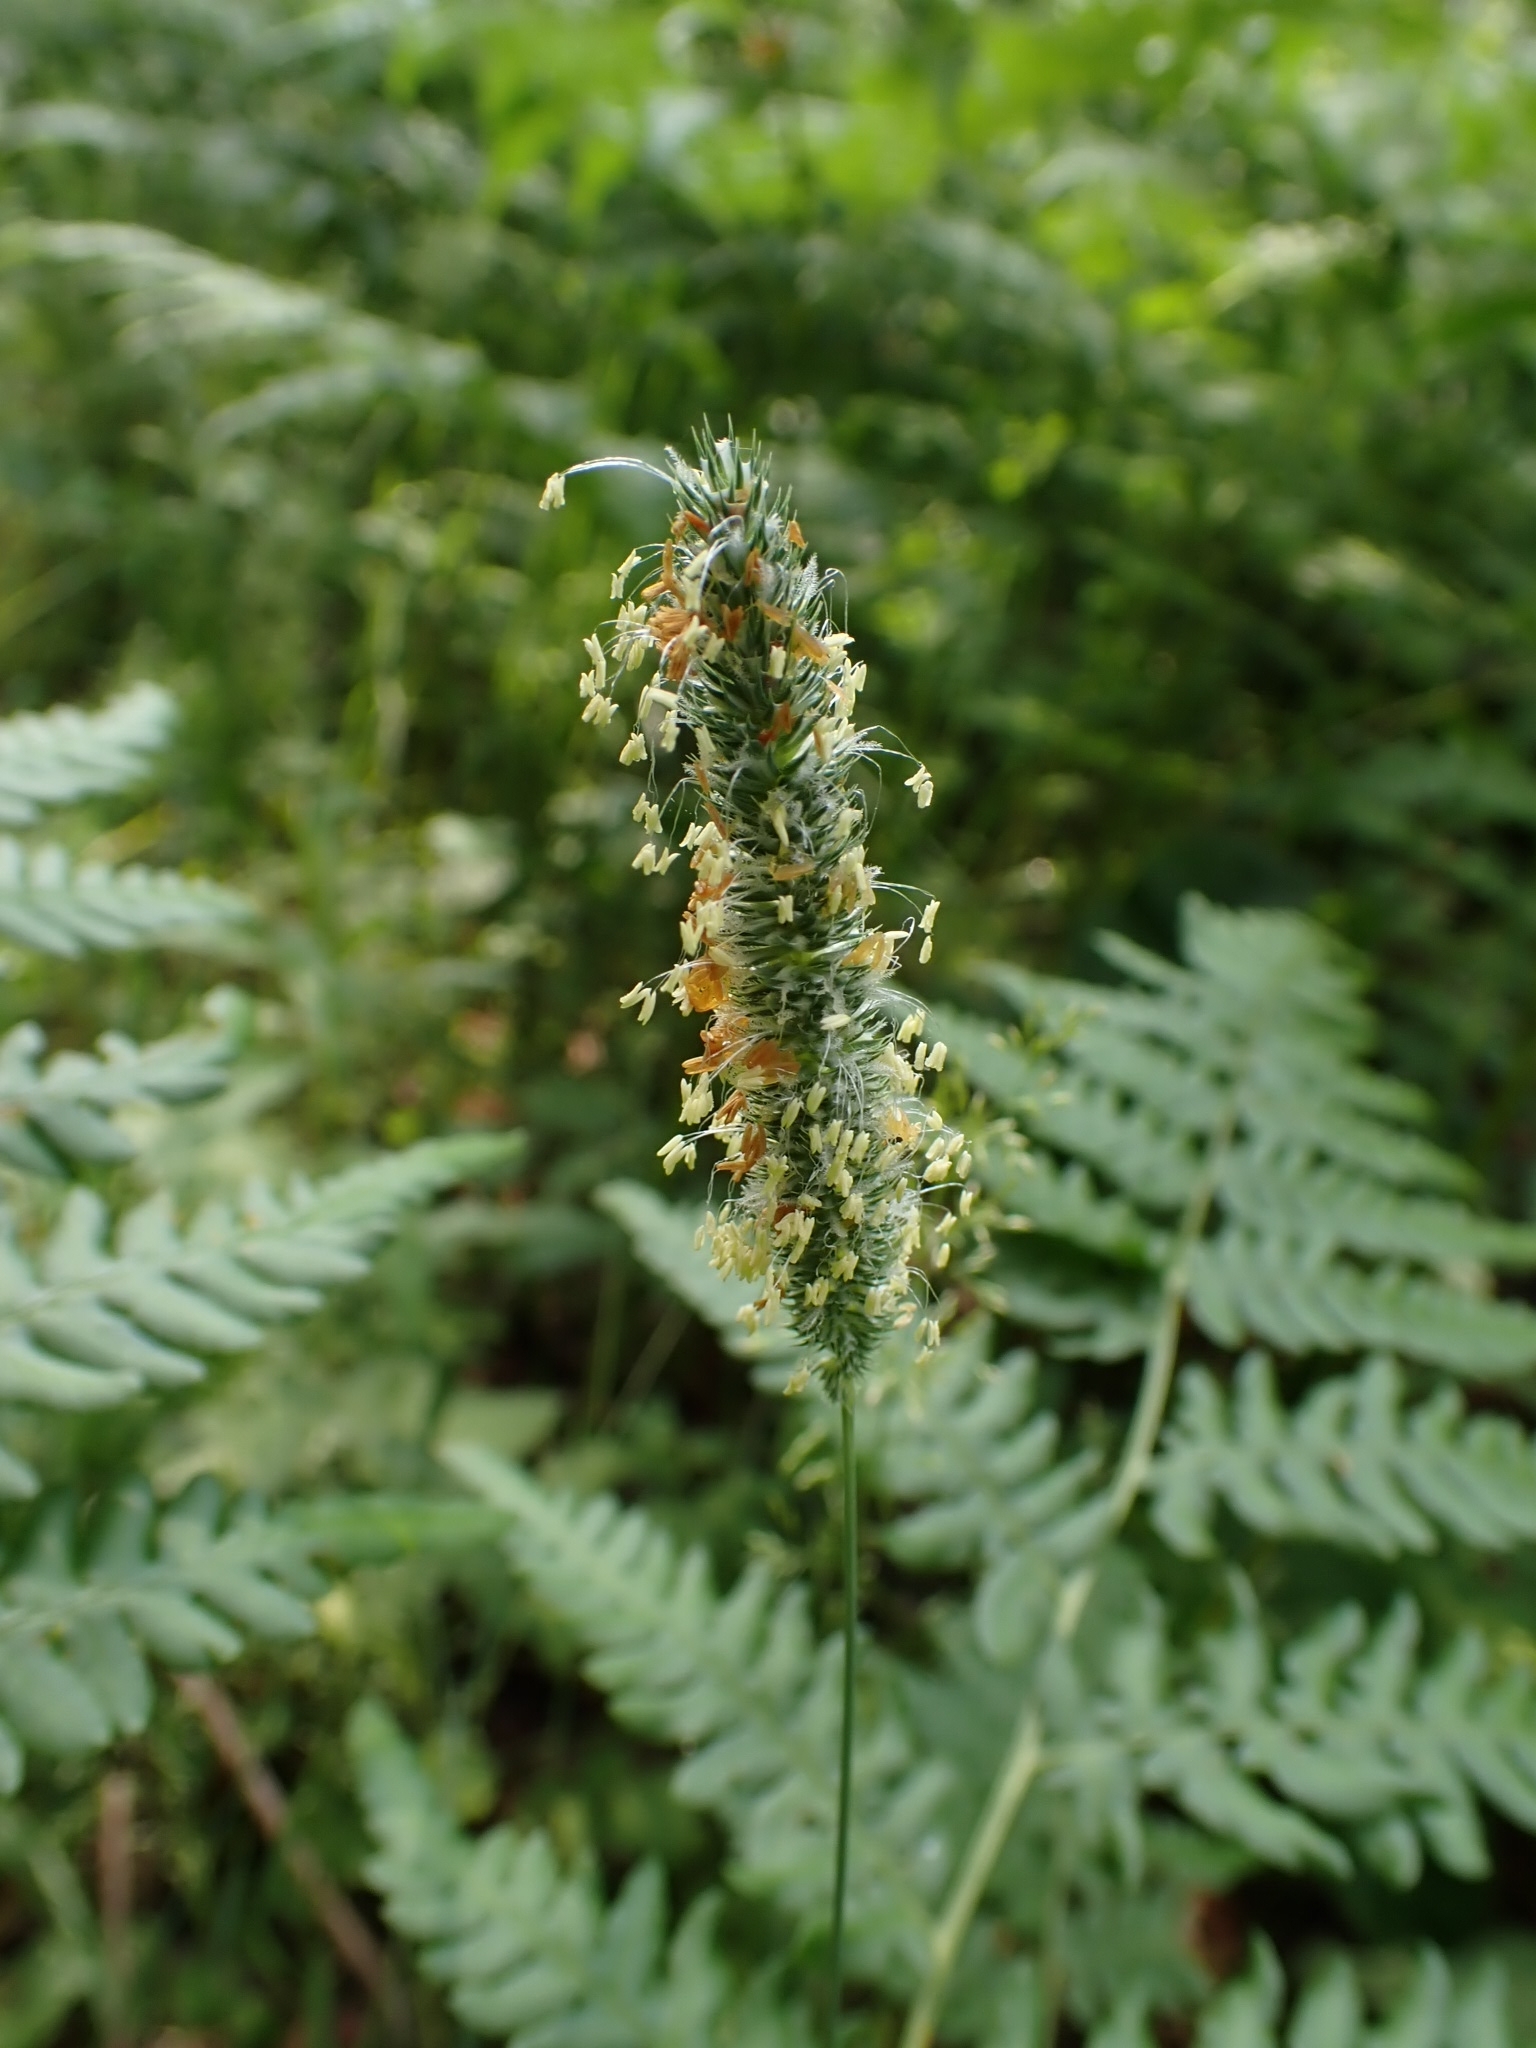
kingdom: Plantae
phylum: Tracheophyta
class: Liliopsida
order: Poales
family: Poaceae
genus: Phleum
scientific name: Phleum pratense
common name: Timothy grass
